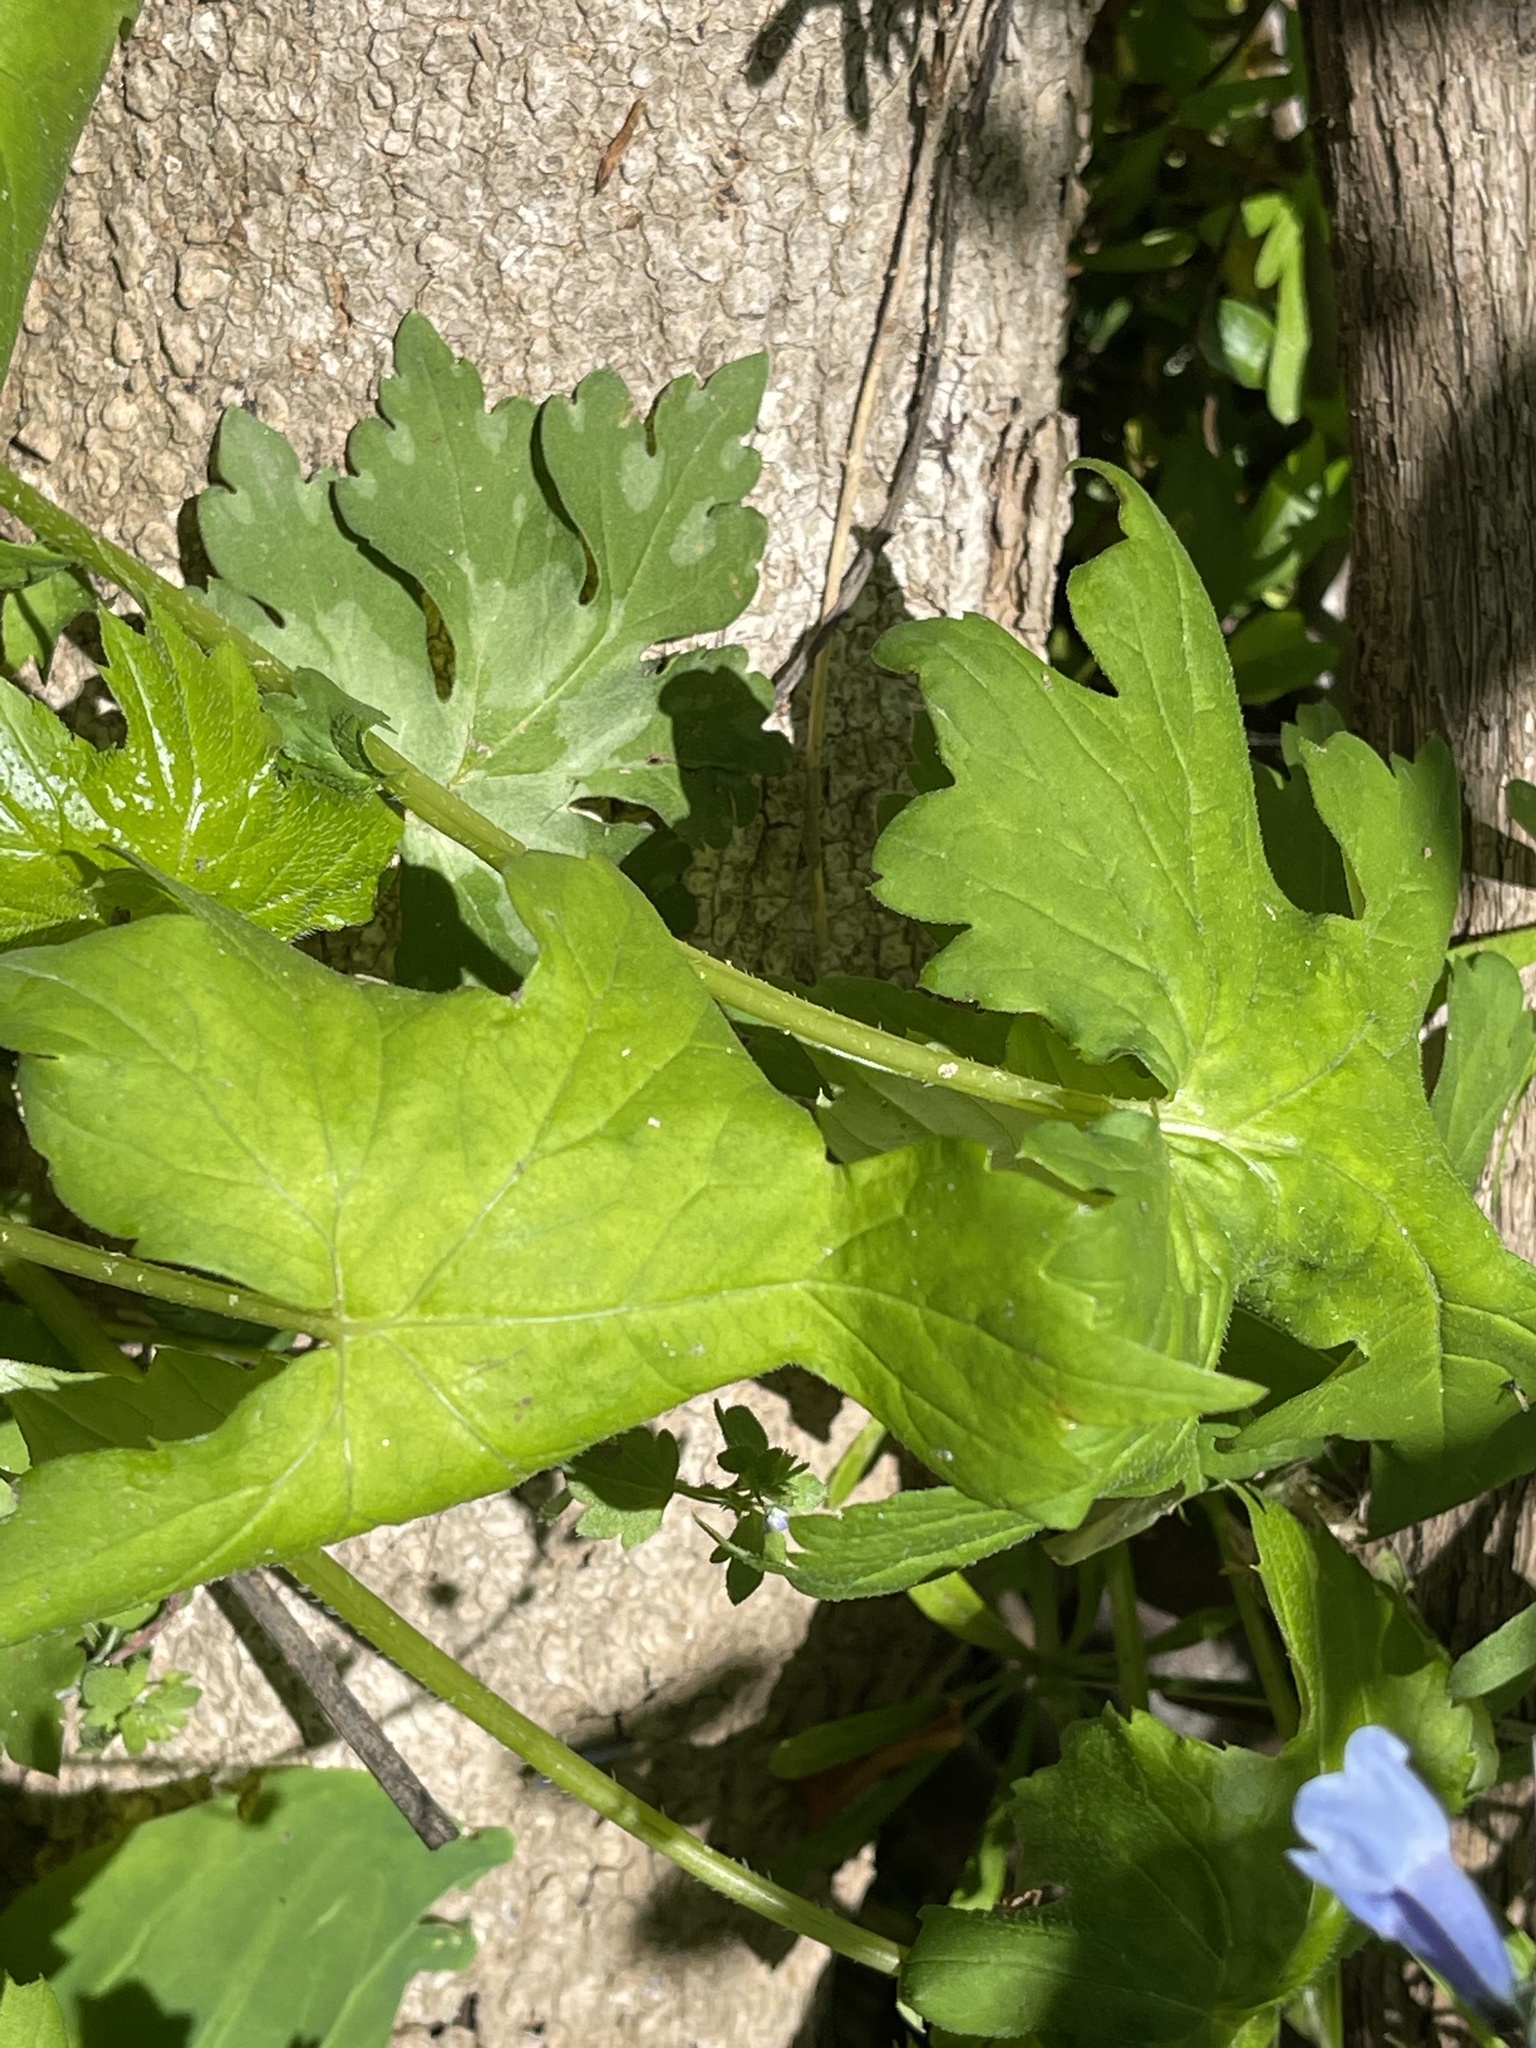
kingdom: Plantae
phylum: Tracheophyta
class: Magnoliopsida
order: Boraginales
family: Hydrophyllaceae
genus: Hydrophyllum
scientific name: Hydrophyllum canadense
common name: Canada waterleaf
